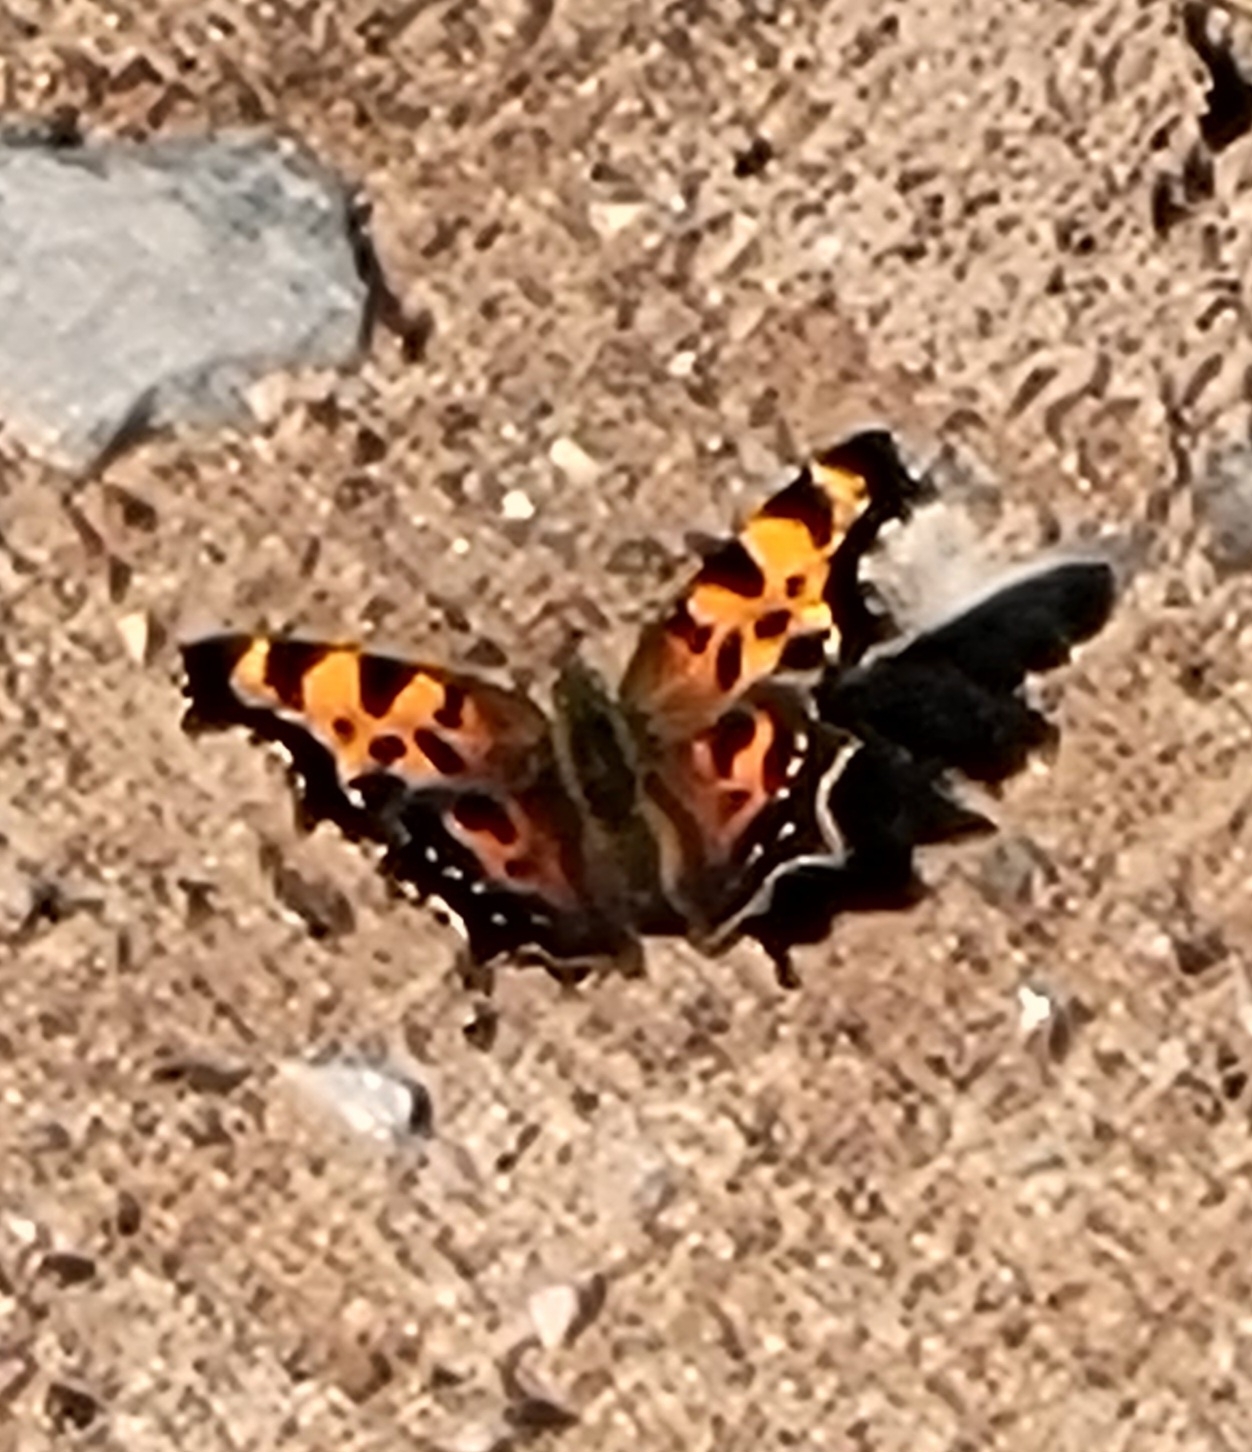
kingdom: Animalia
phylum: Arthropoda
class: Insecta
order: Lepidoptera
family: Nymphalidae
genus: Polygonia
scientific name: Polygonia faunus
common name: Green comma
